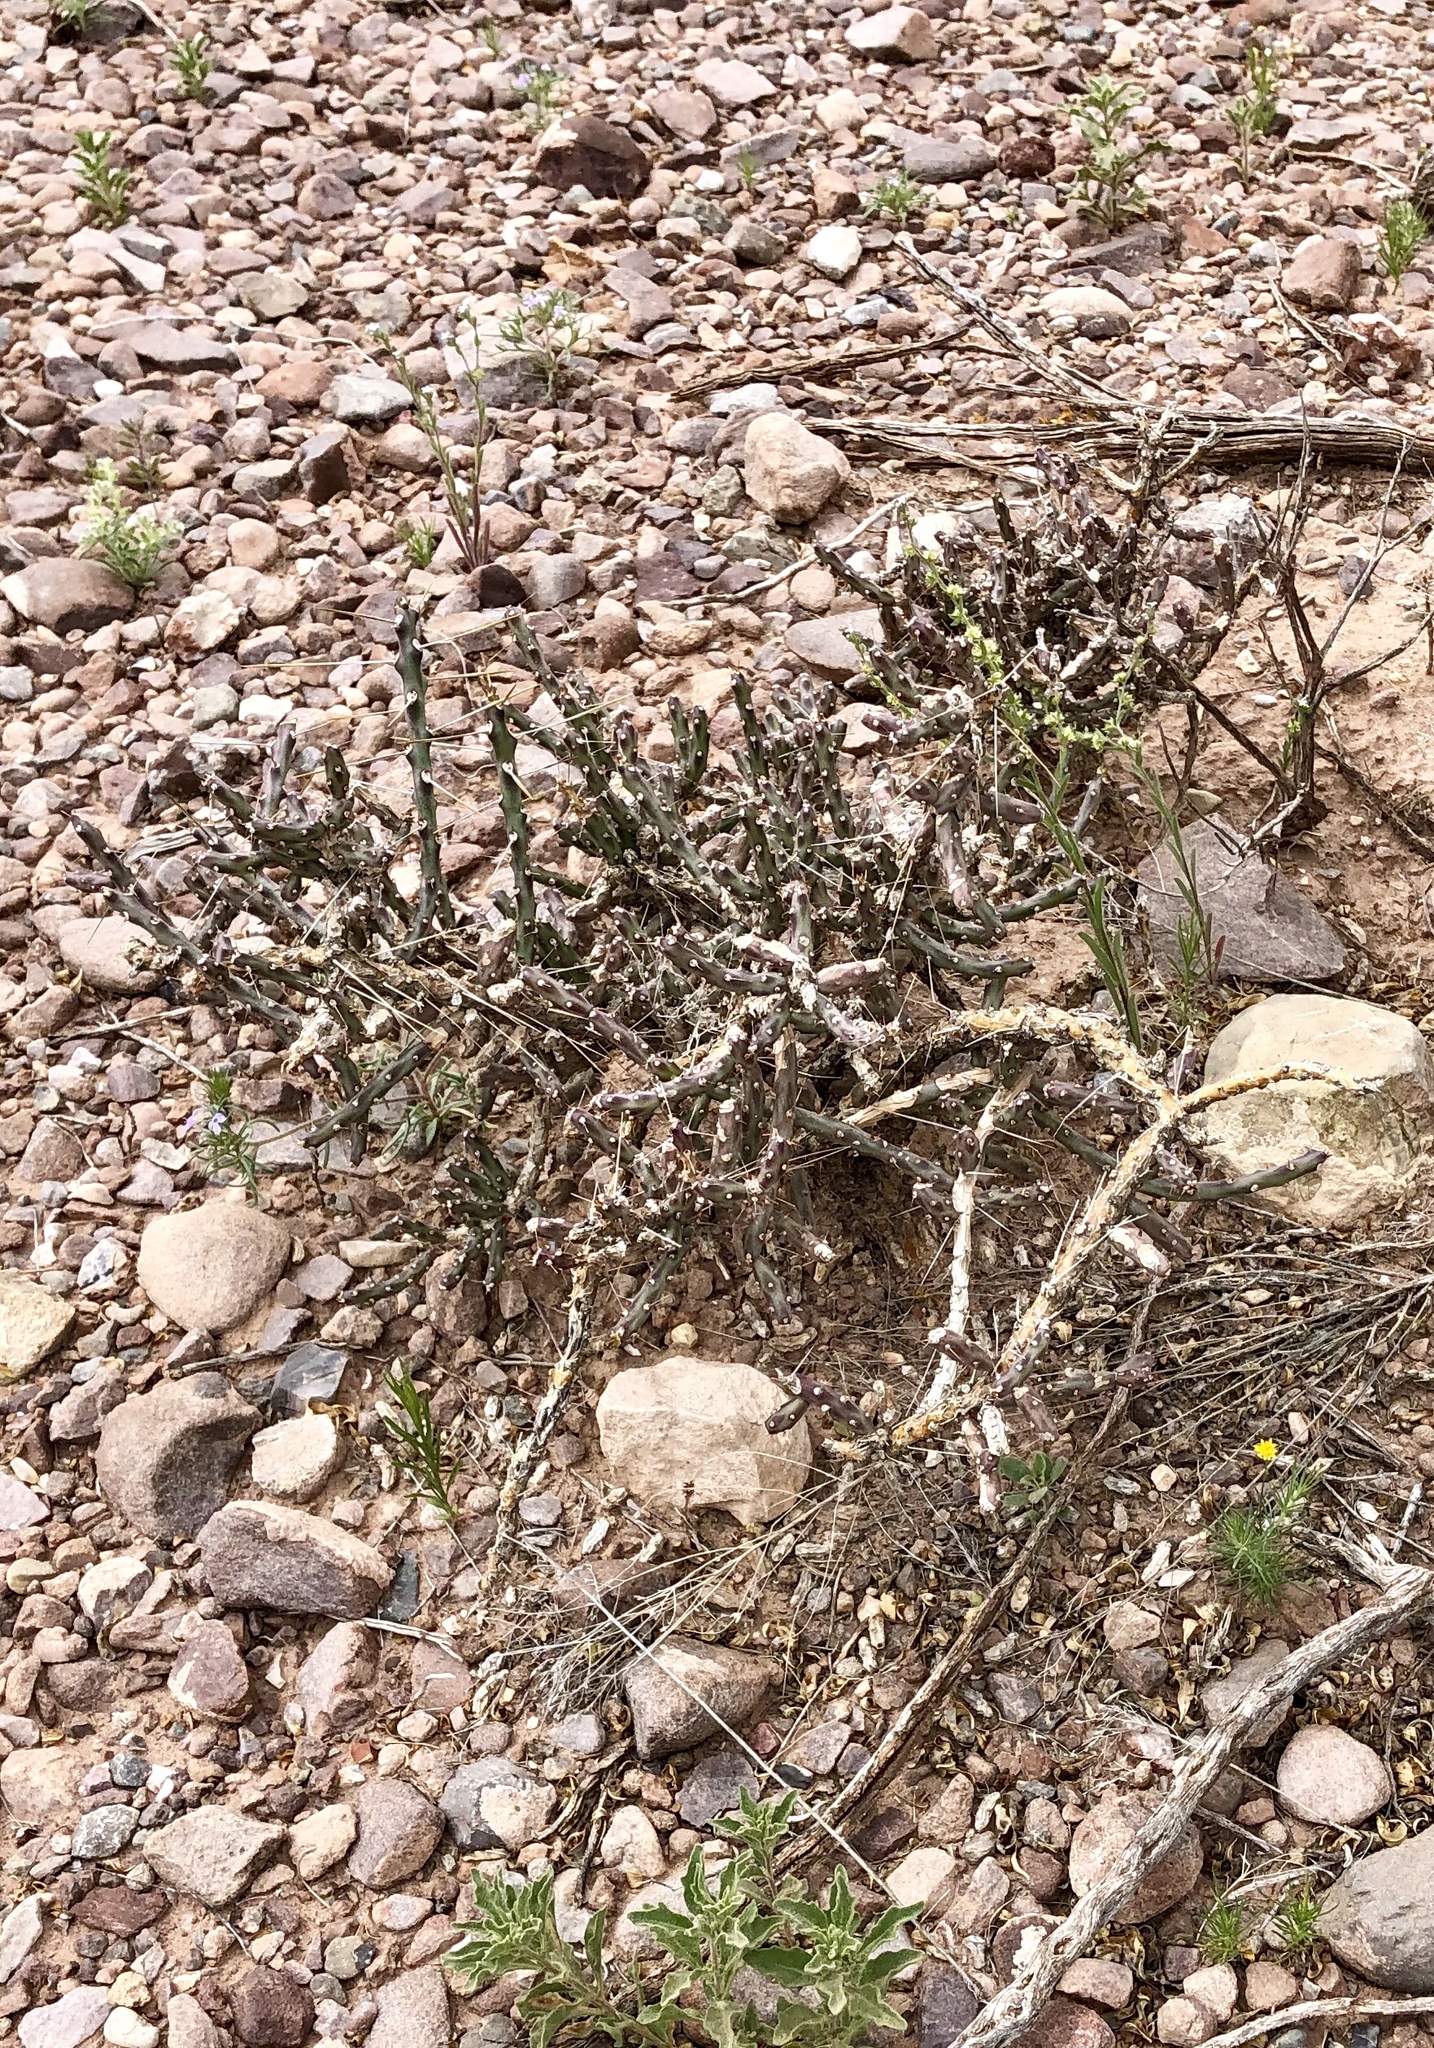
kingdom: Plantae
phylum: Tracheophyta
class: Magnoliopsida
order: Caryophyllales
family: Cactaceae
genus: Cylindropuntia
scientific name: Cylindropuntia kleiniae
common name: Klein's cholla
